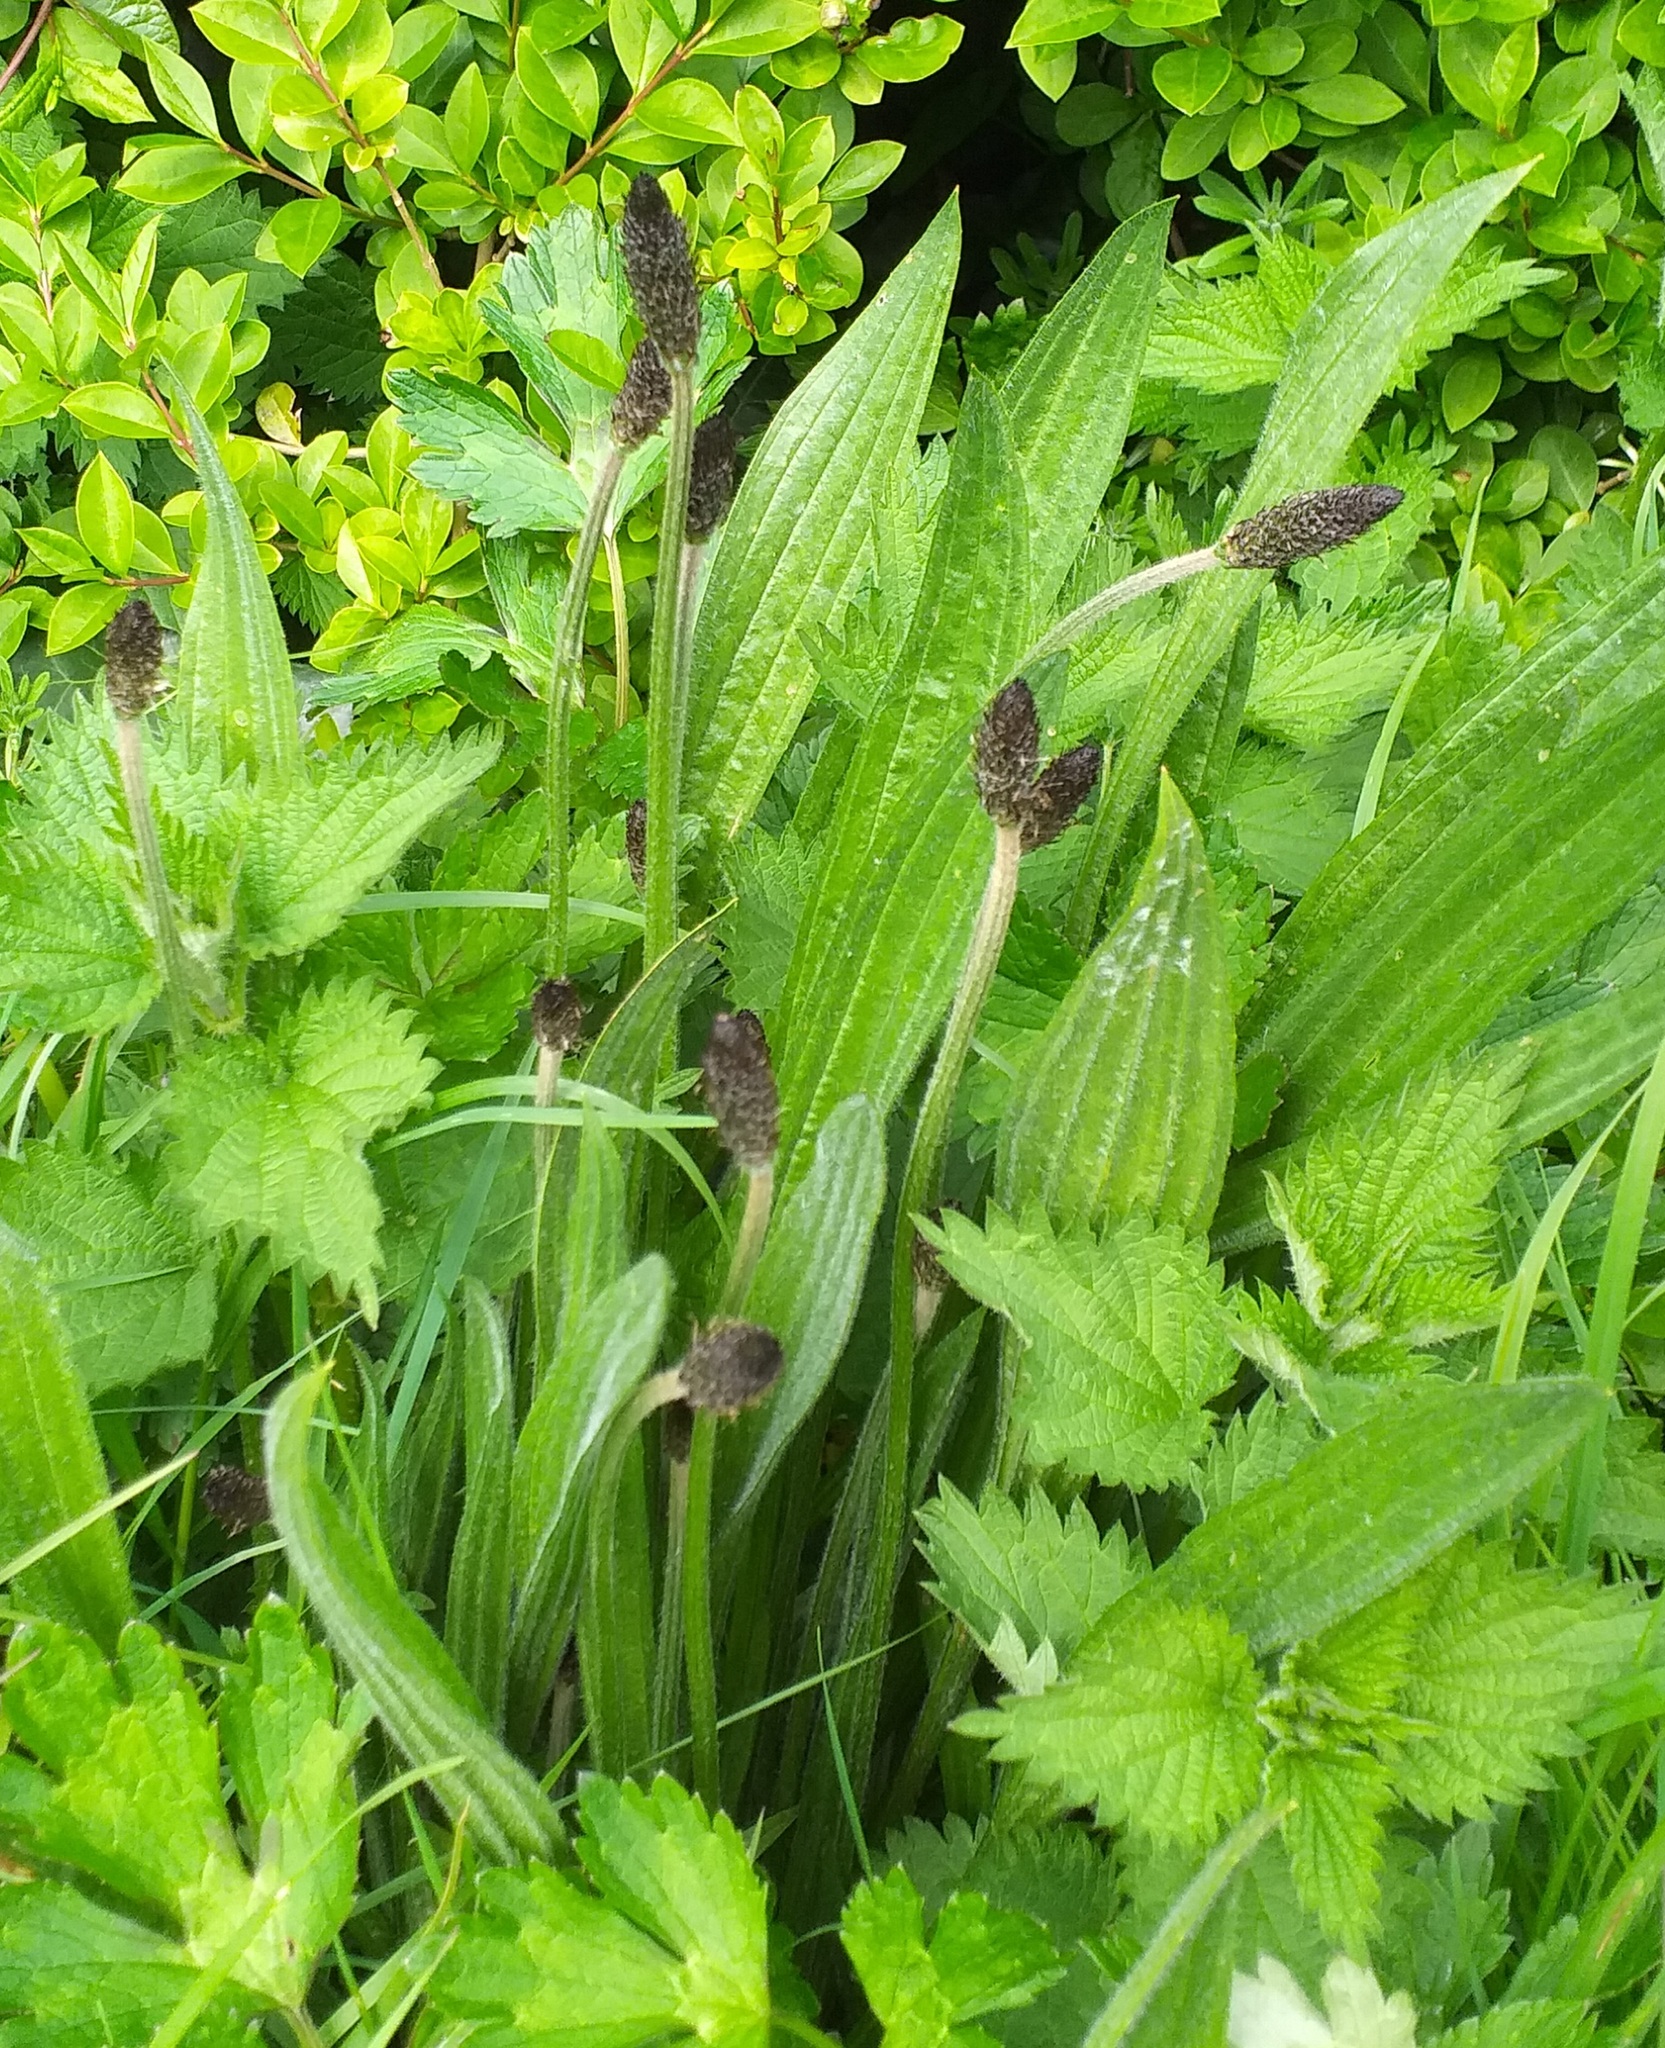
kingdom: Plantae
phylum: Tracheophyta
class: Magnoliopsida
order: Lamiales
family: Plantaginaceae
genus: Plantago
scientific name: Plantago lanceolata
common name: Ribwort plantain
